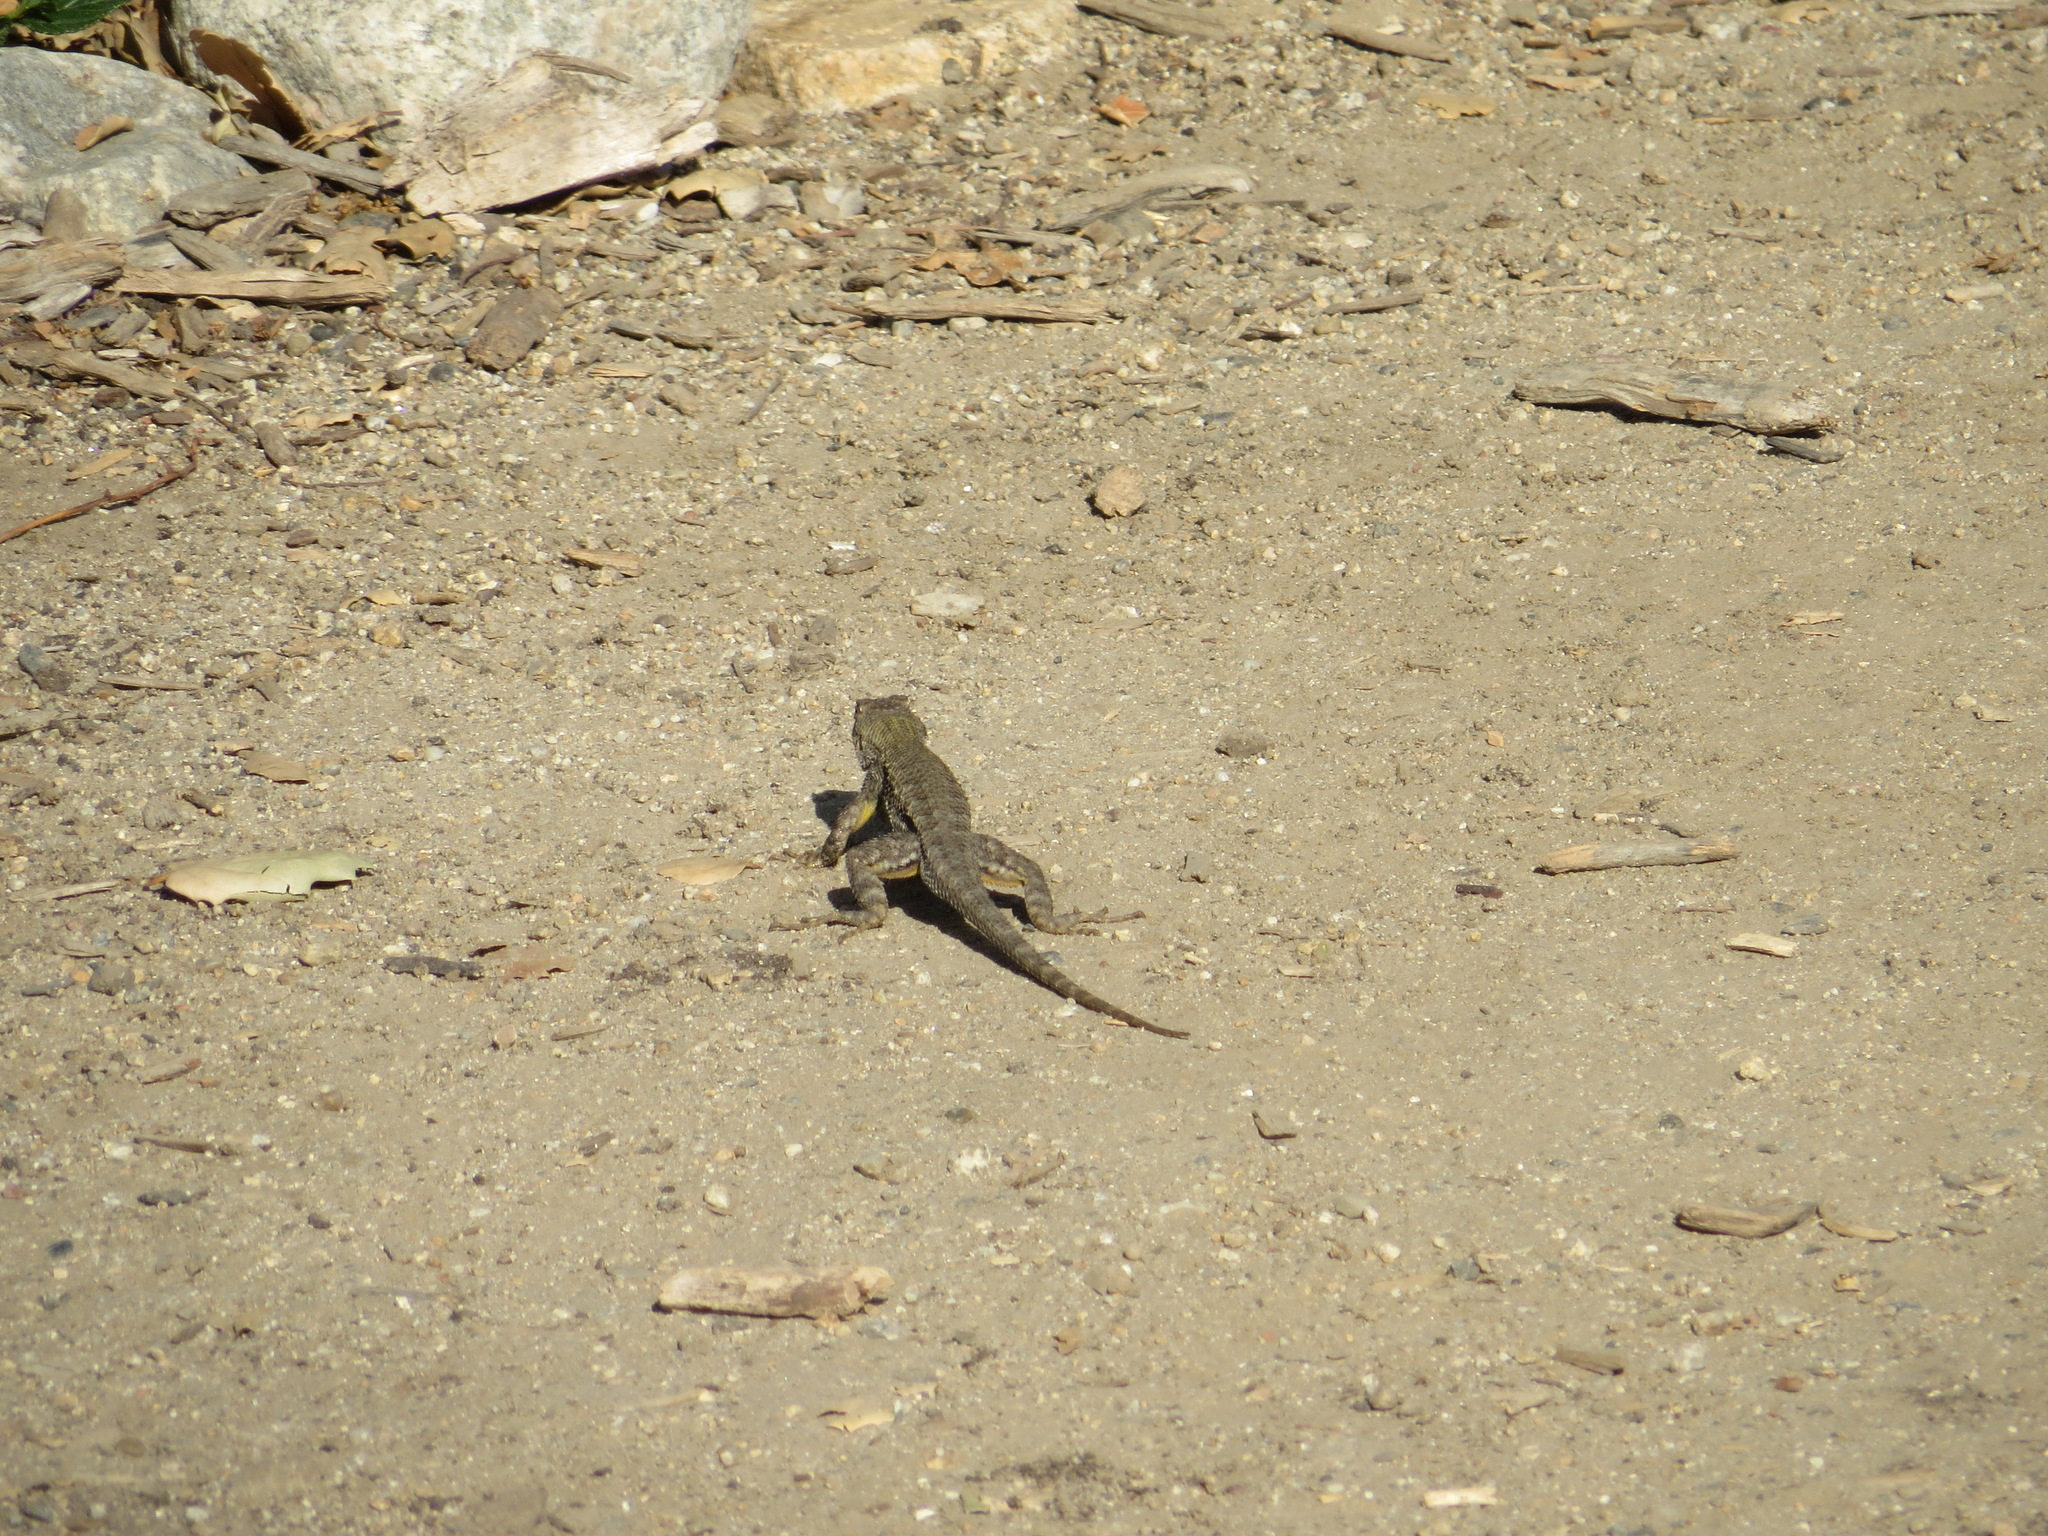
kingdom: Animalia
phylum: Chordata
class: Squamata
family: Phrynosomatidae
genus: Sceloporus
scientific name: Sceloporus occidentalis
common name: Western fence lizard
